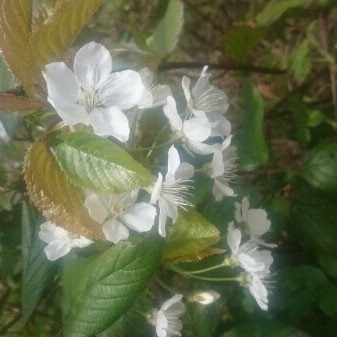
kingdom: Plantae
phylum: Tracheophyta
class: Magnoliopsida
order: Rosales
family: Rosaceae
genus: Prunus
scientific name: Prunus avium
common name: Sweet cherry
